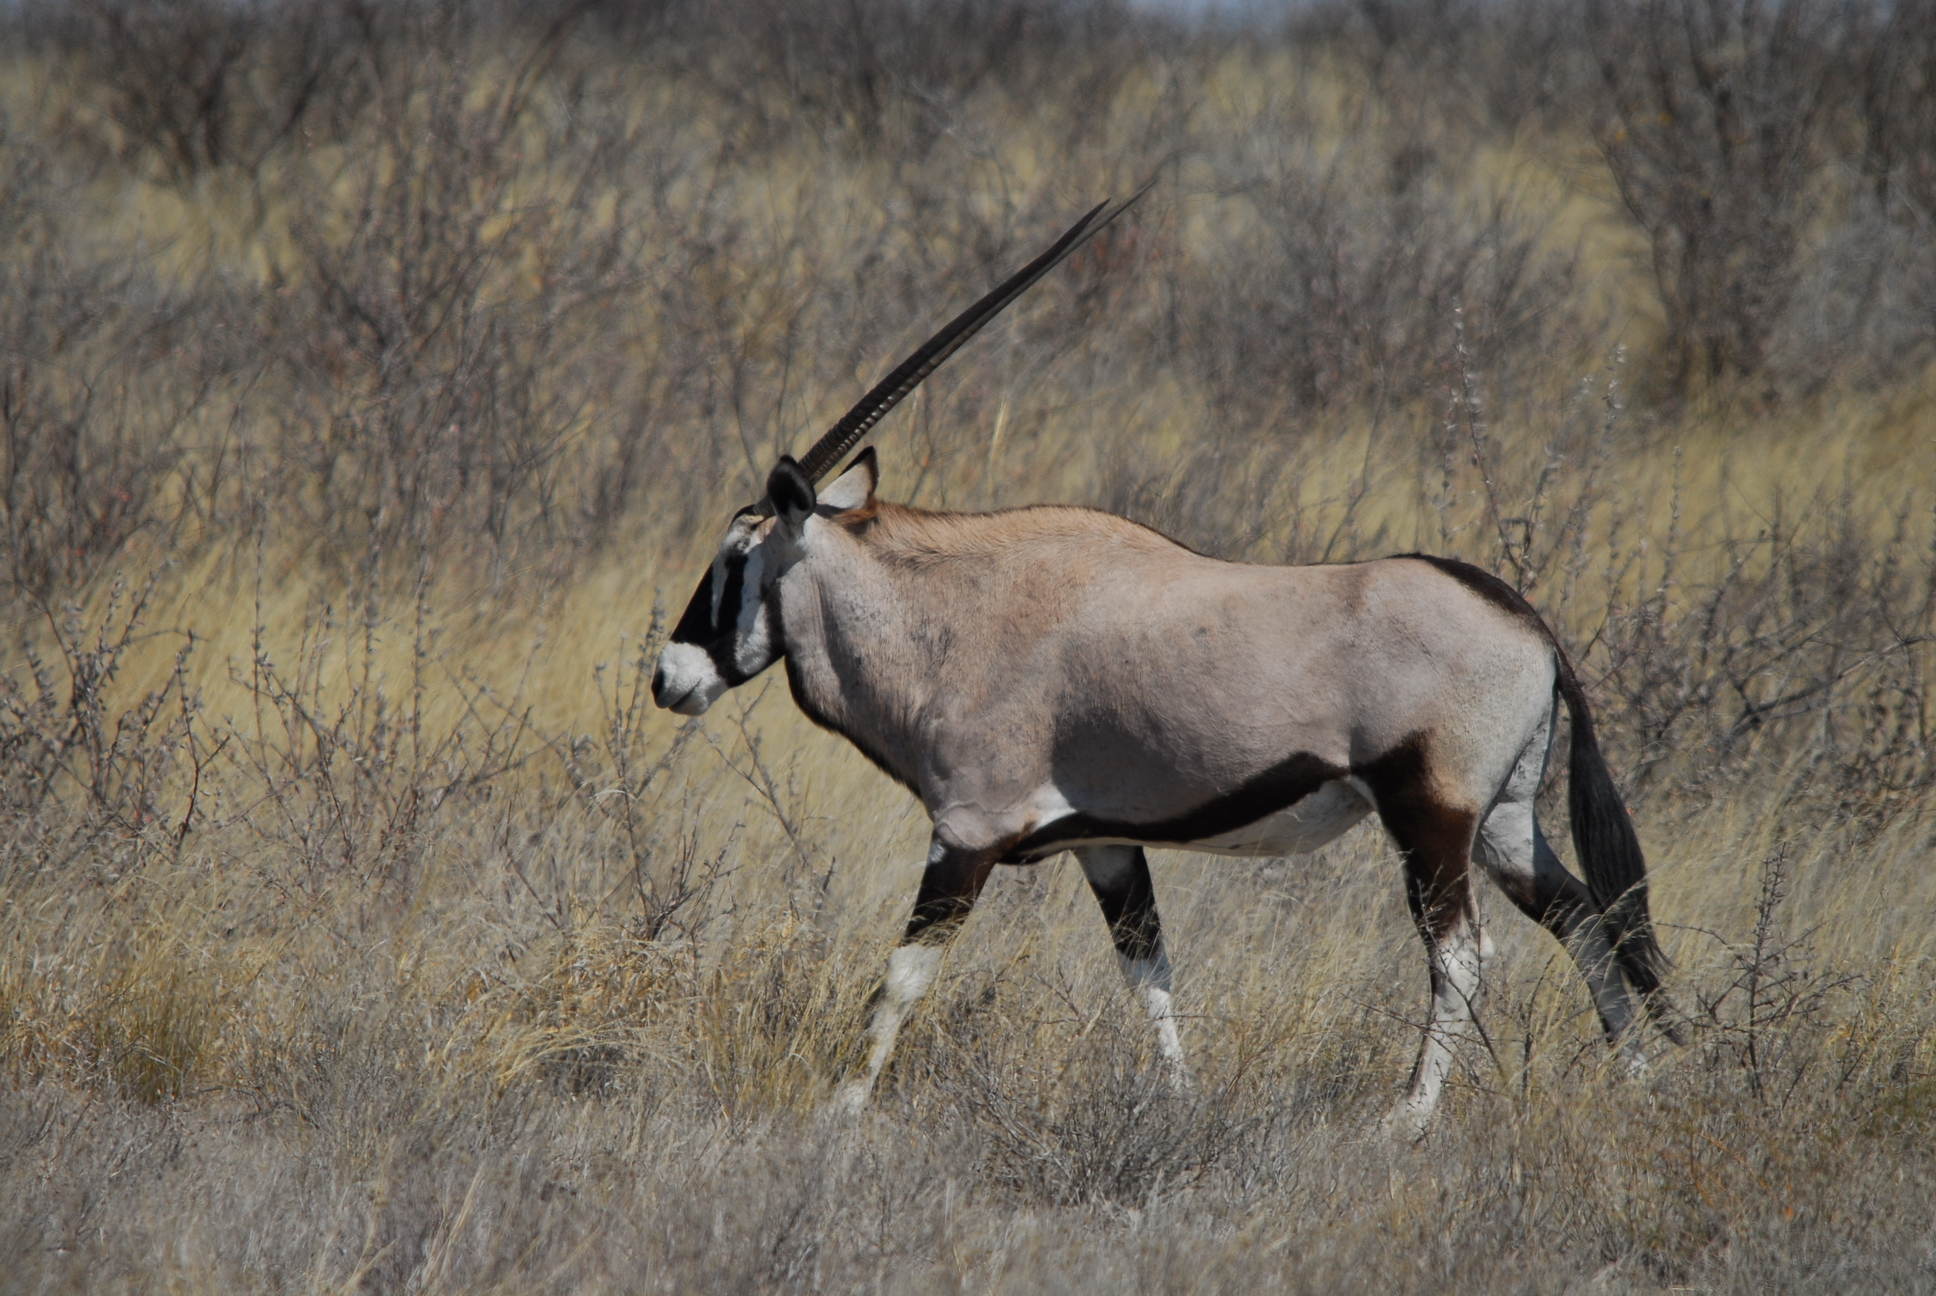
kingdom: Animalia
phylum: Chordata
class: Mammalia
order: Artiodactyla
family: Bovidae
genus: Oryx
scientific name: Oryx gazella
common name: Gemsbok
